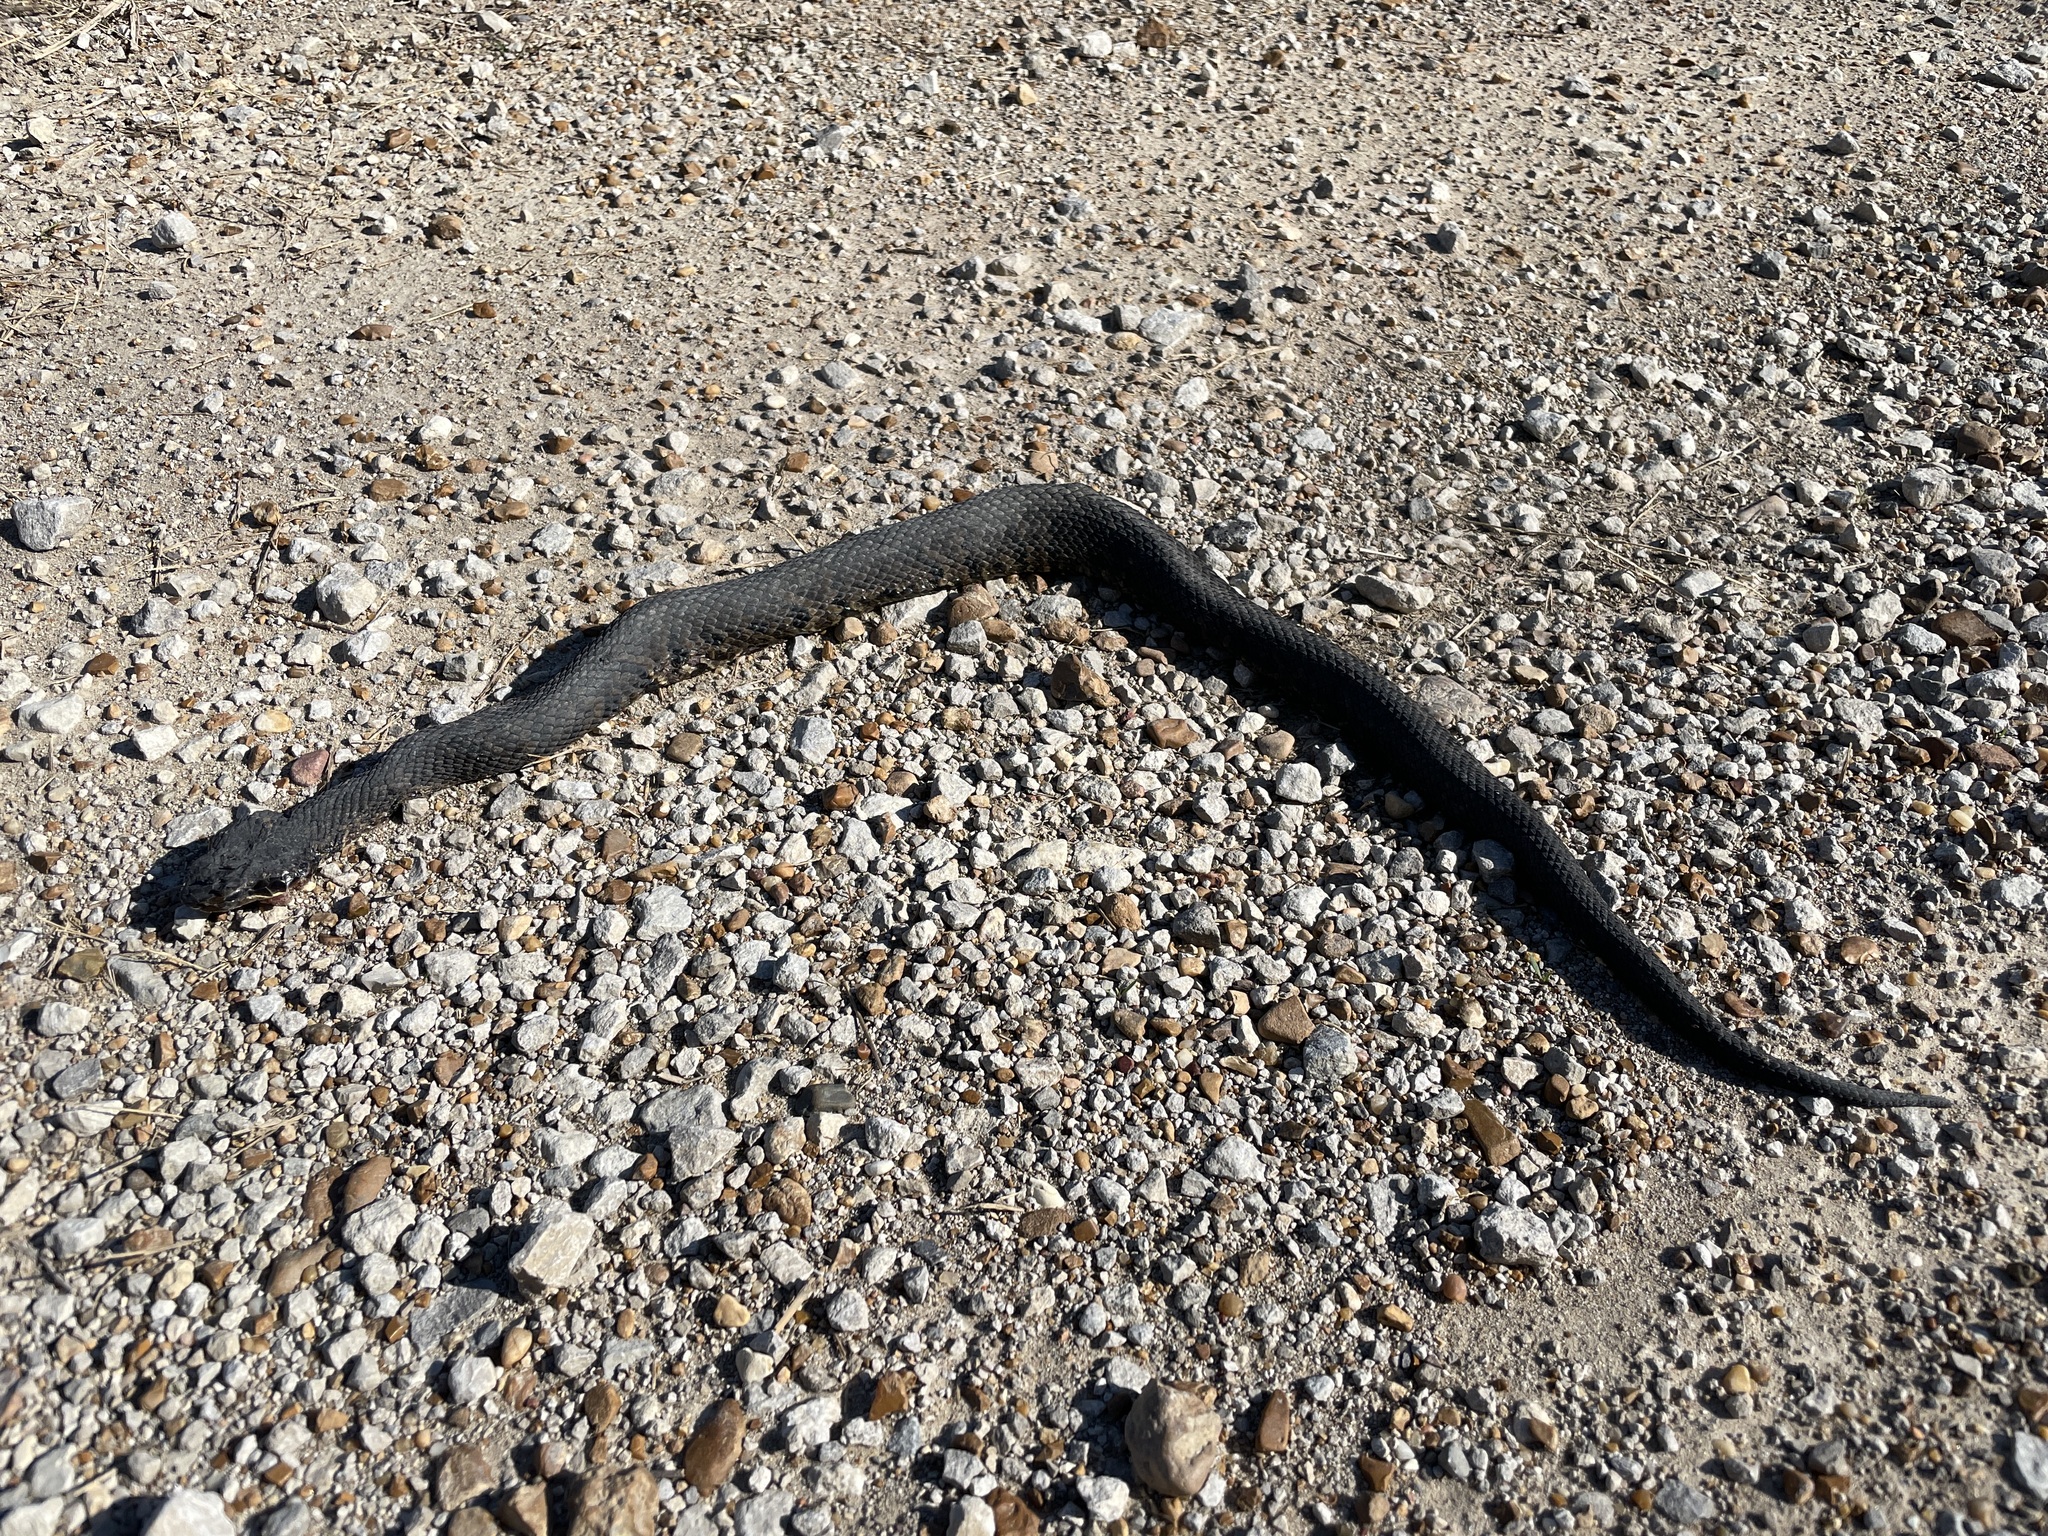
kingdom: Animalia
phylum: Chordata
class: Squamata
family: Viperidae
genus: Agkistrodon
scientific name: Agkistrodon piscivorus
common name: Cottonmouth
